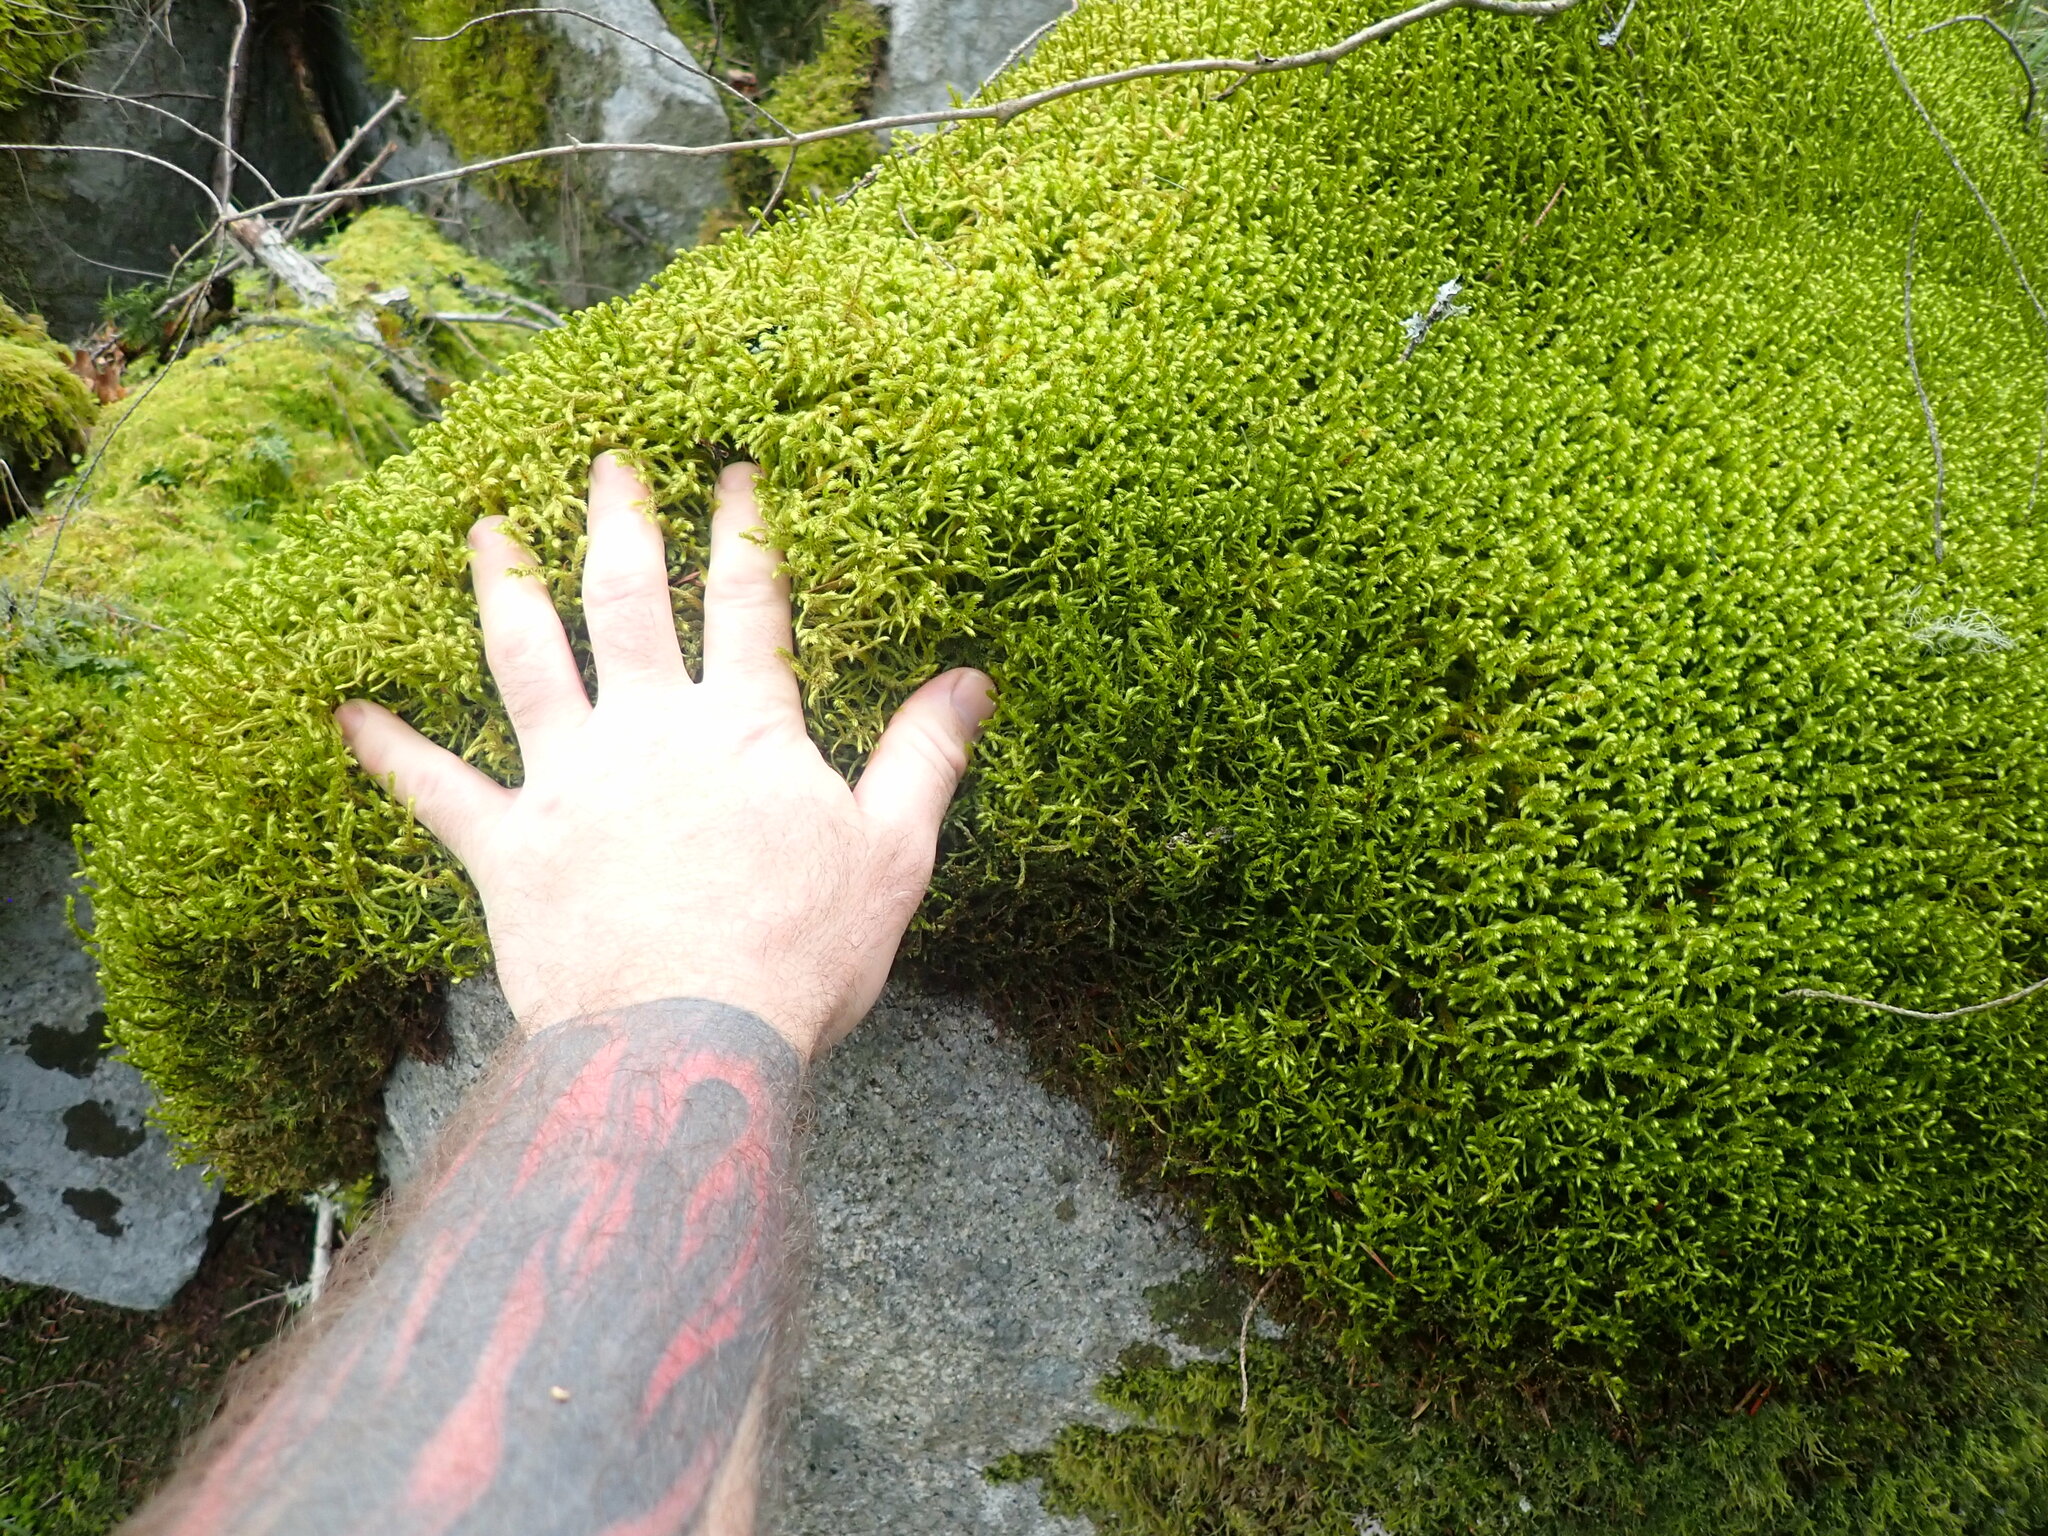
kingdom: Plantae
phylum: Bryophyta
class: Bryopsida
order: Hypnales
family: Antitrichiaceae
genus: Antitrichia
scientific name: Antitrichia curtipendula
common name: Pendulous wing-moss
